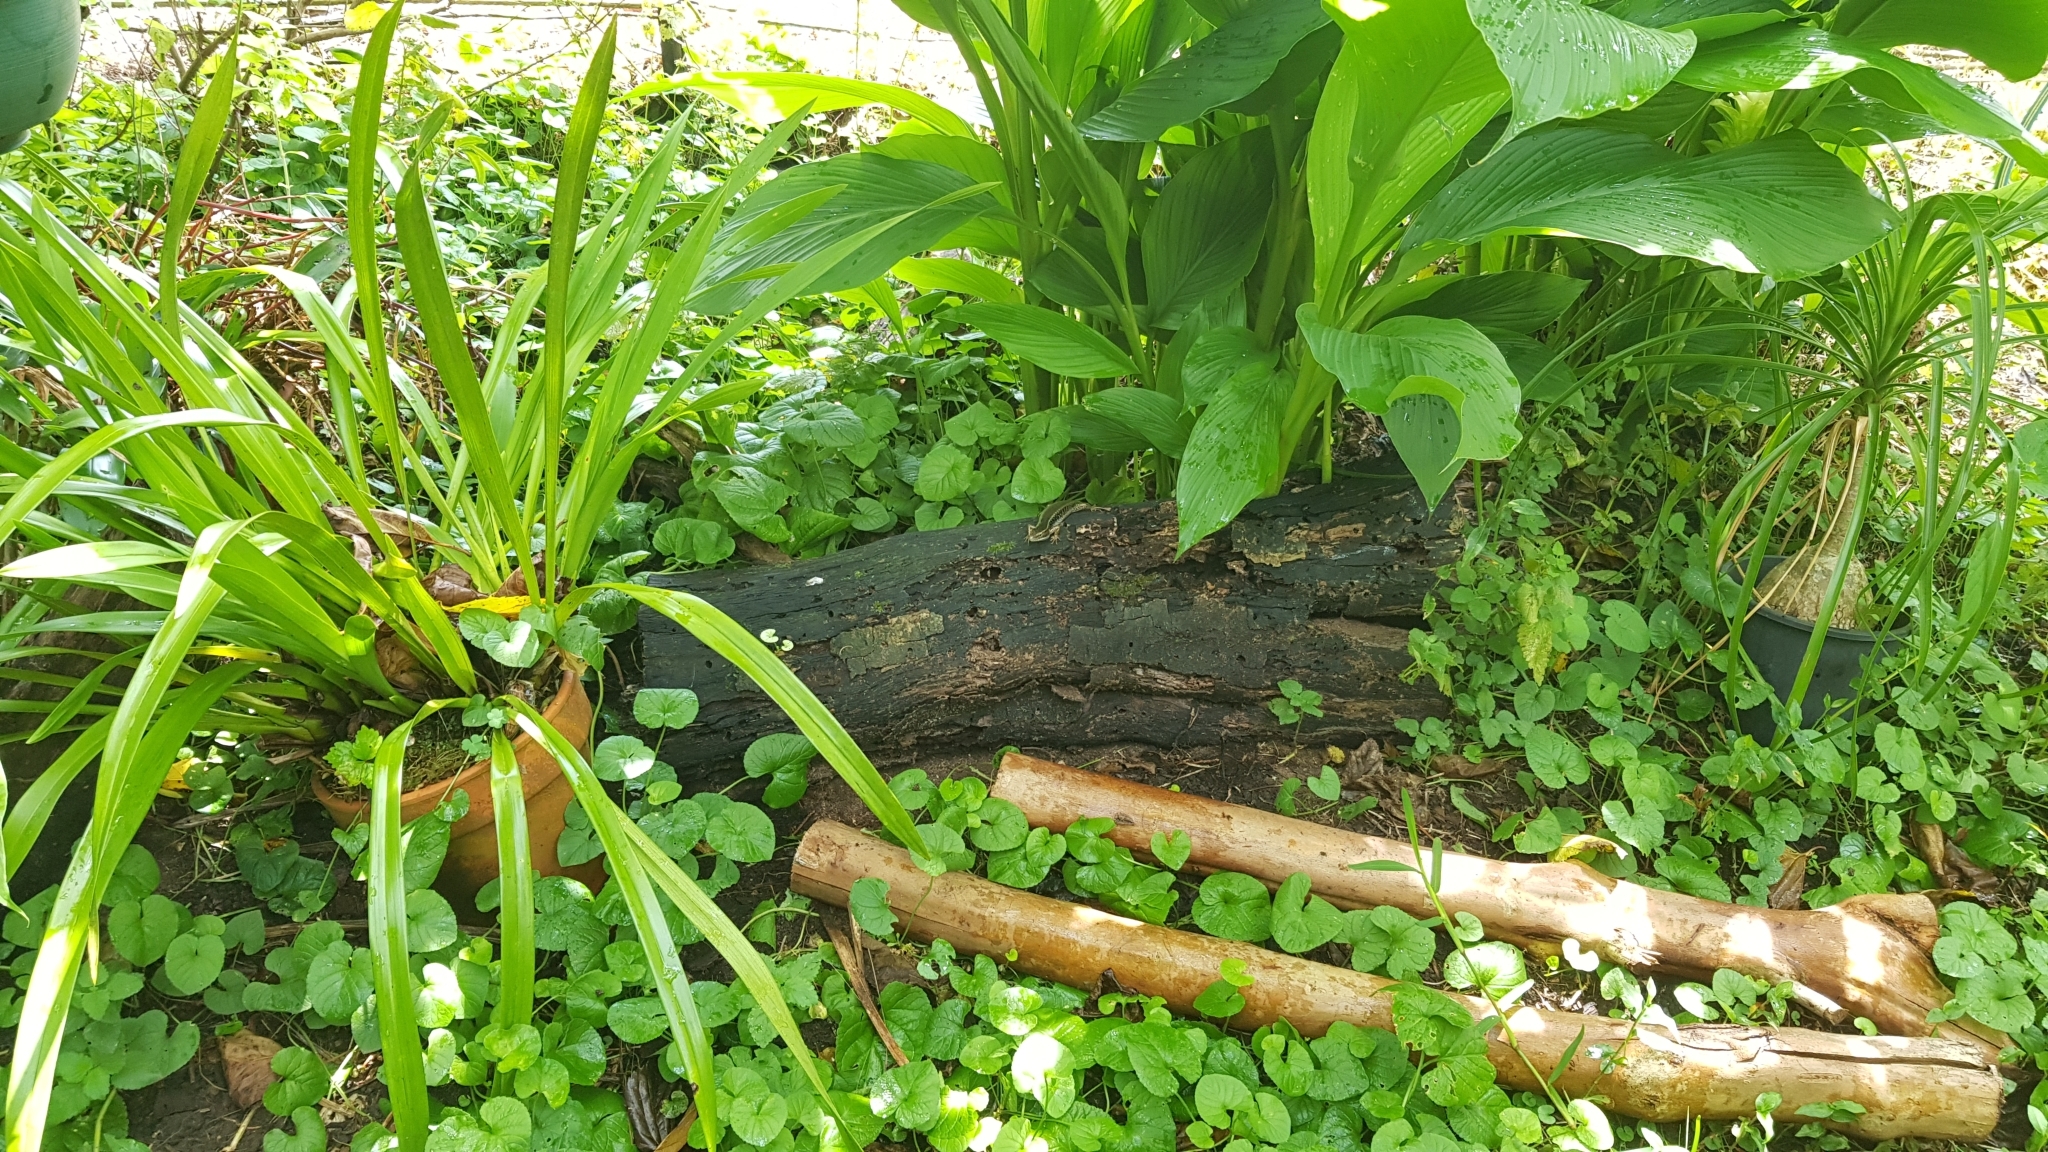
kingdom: Animalia
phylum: Chordata
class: Squamata
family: Scincidae
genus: Eulamprus
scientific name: Eulamprus quoyii
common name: Eastern water skink
